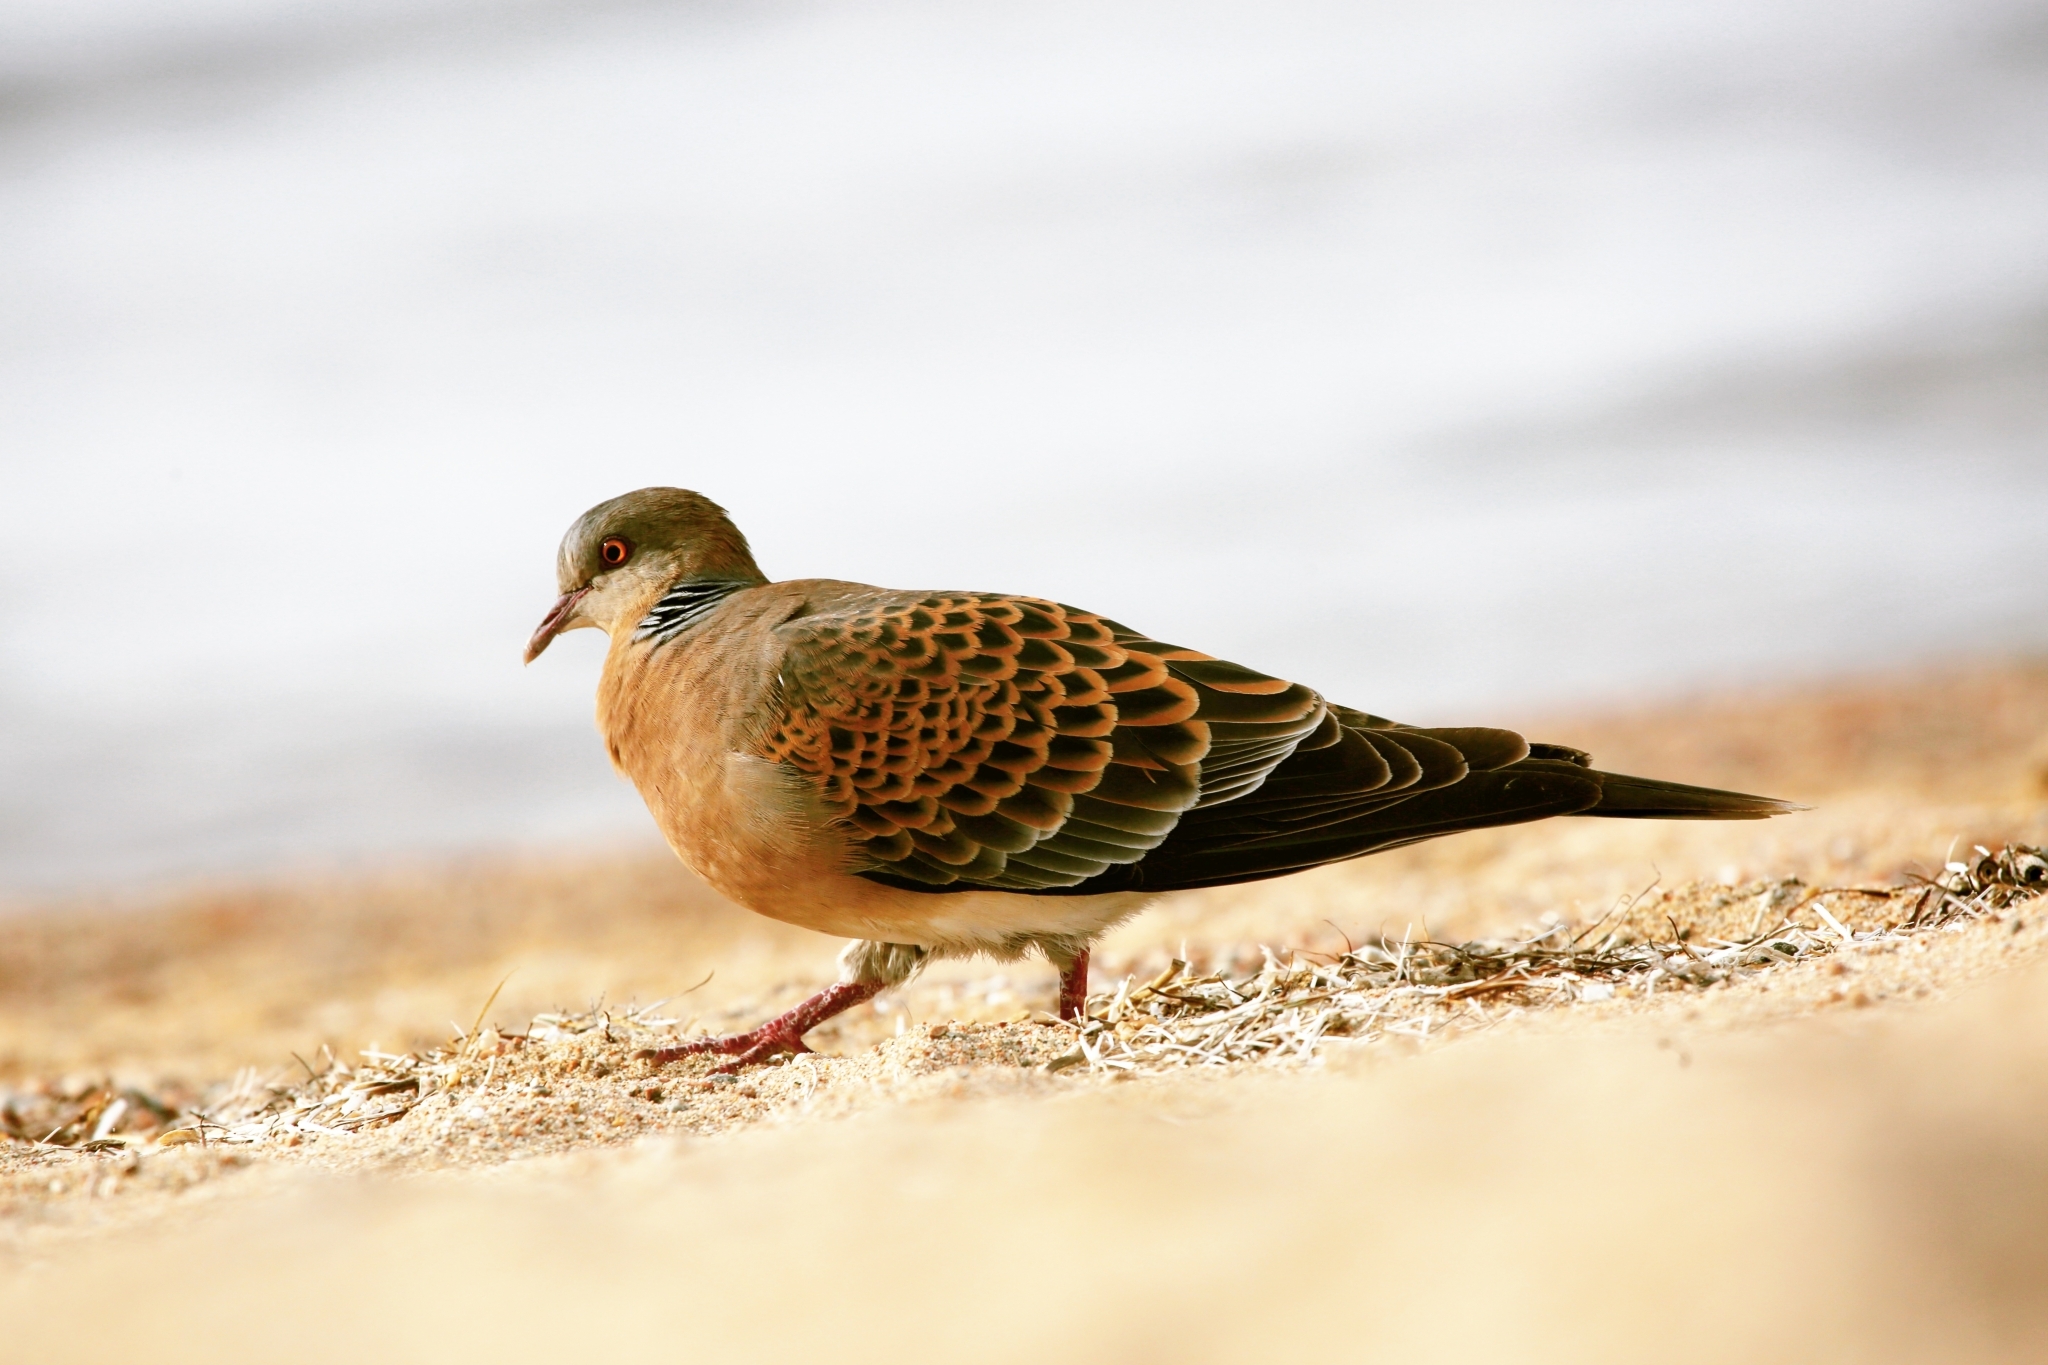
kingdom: Animalia
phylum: Chordata
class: Aves
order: Columbiformes
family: Columbidae
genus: Streptopelia
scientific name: Streptopelia orientalis
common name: Oriental turtle dove
